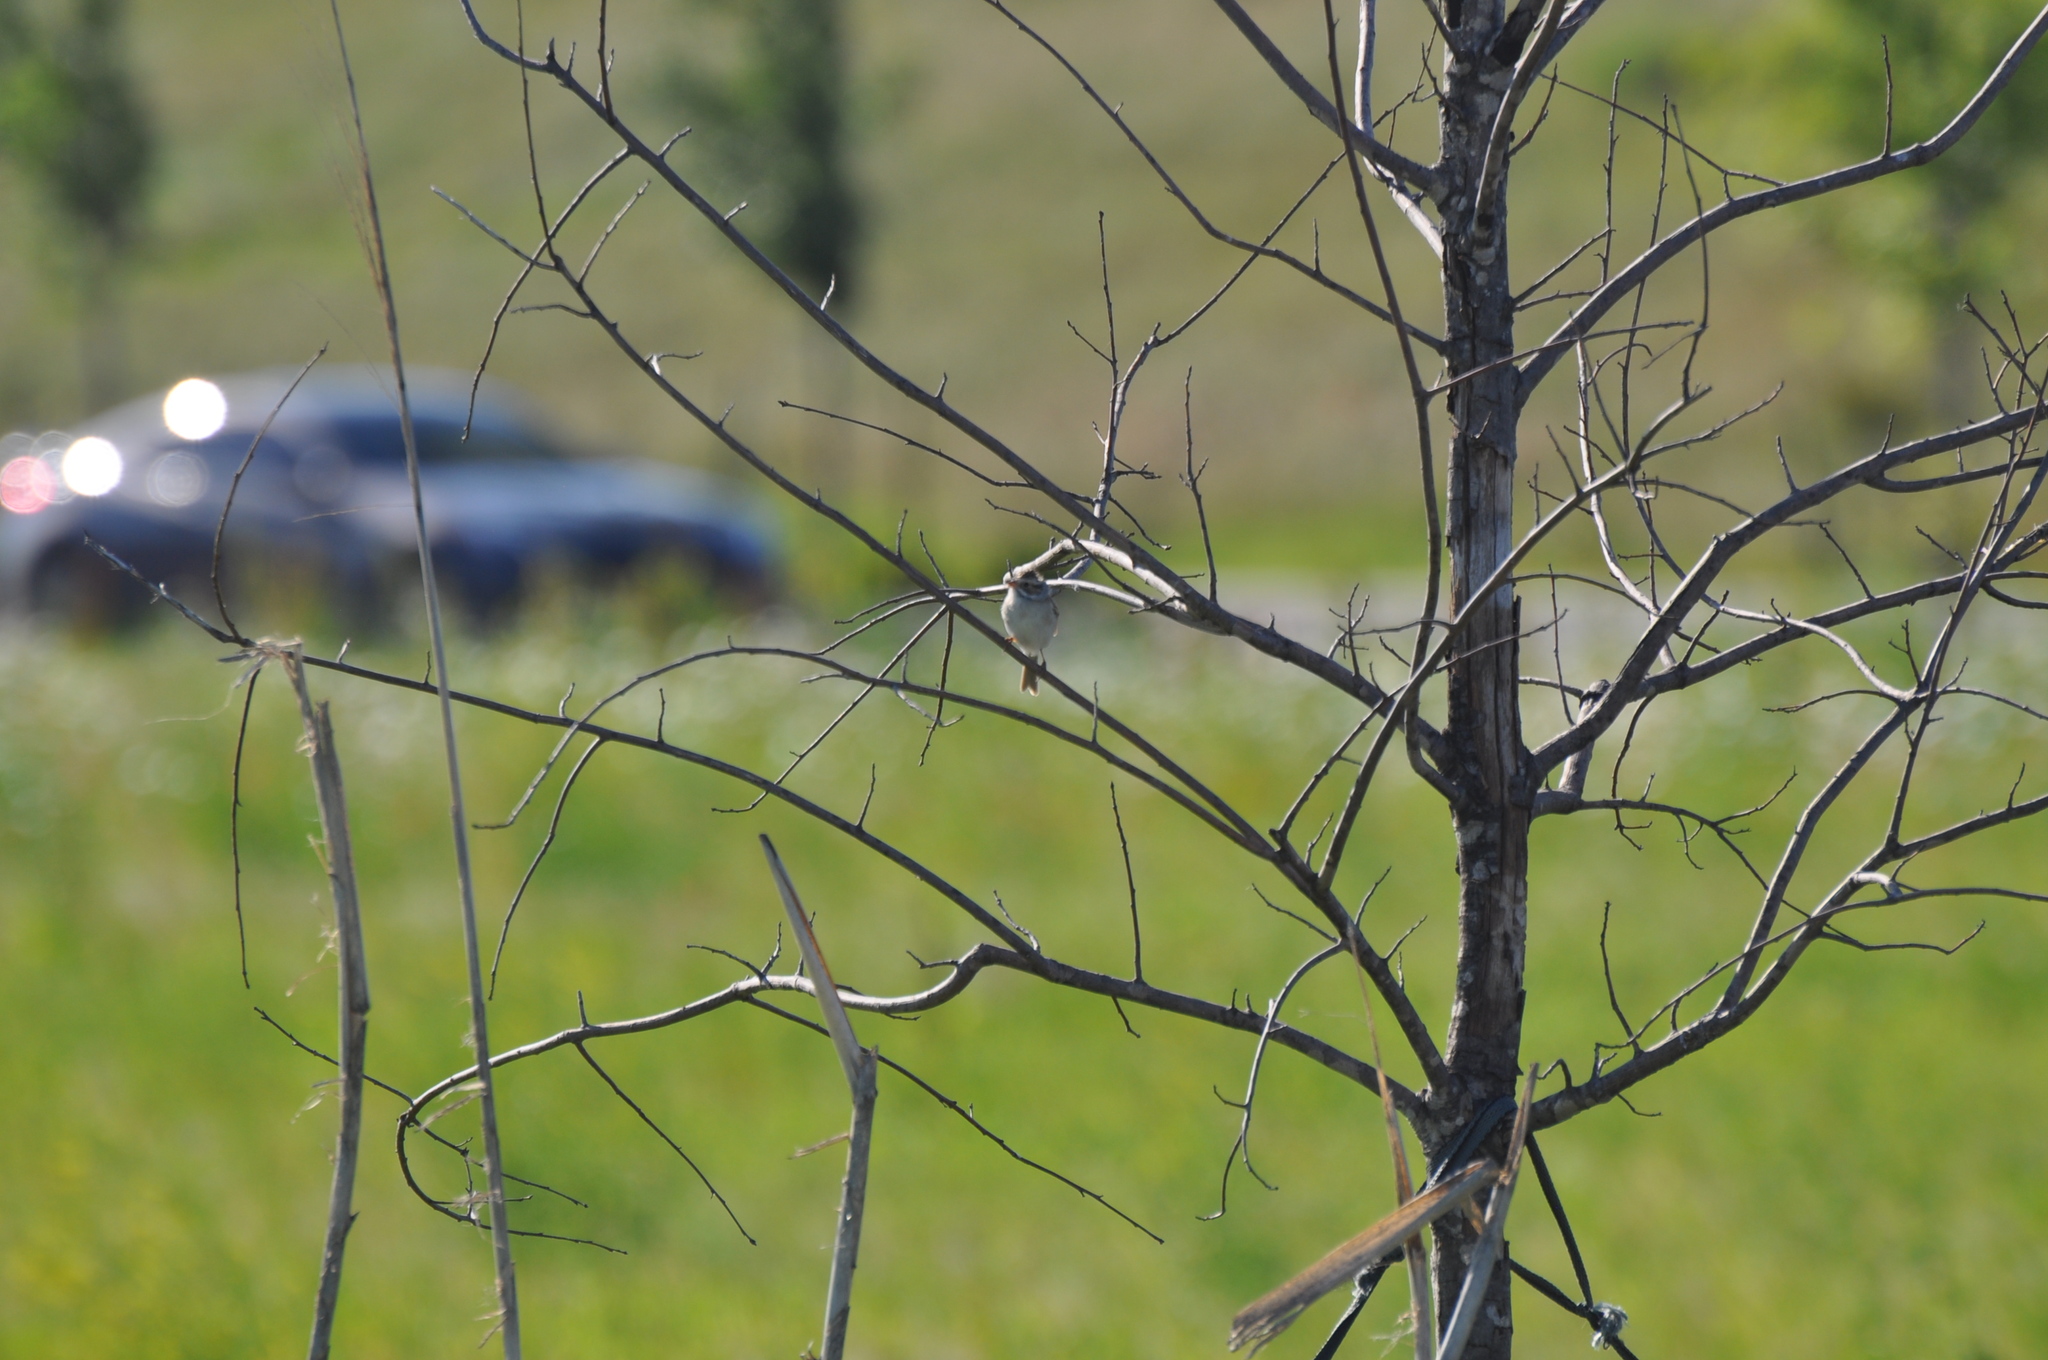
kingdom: Animalia
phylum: Chordata
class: Aves
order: Passeriformes
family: Passerellidae
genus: Spizella
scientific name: Spizella pallida
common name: Clay-colored sparrow
